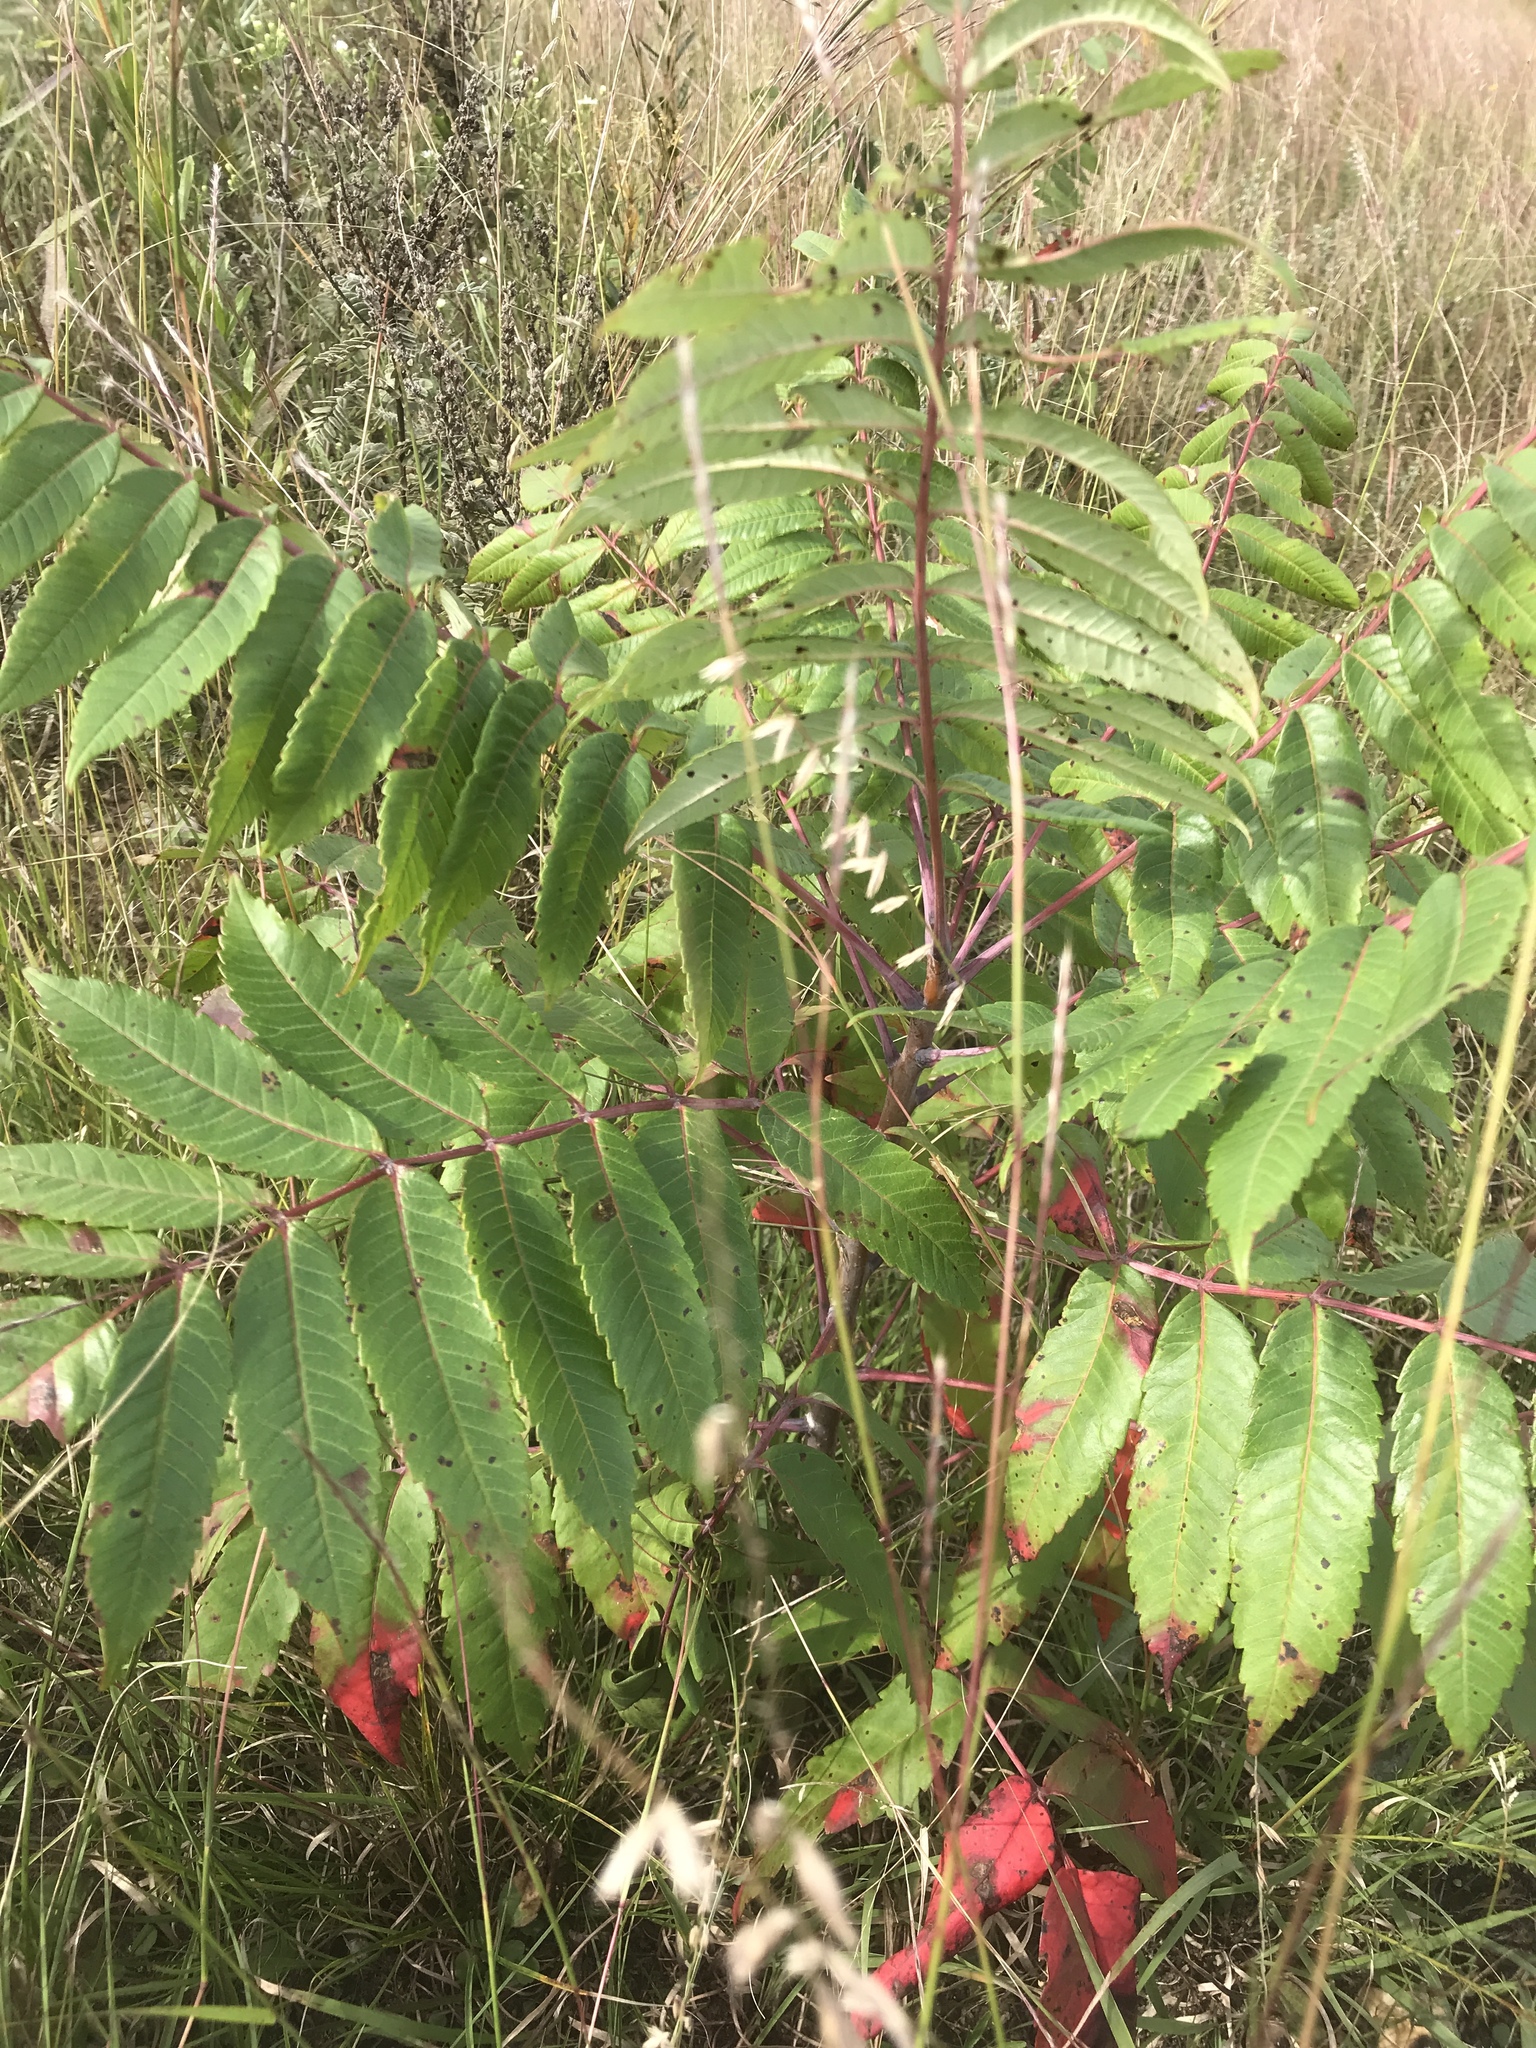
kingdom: Plantae
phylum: Tracheophyta
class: Magnoliopsida
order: Sapindales
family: Anacardiaceae
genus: Rhus
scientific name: Rhus glabra
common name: Scarlet sumac
